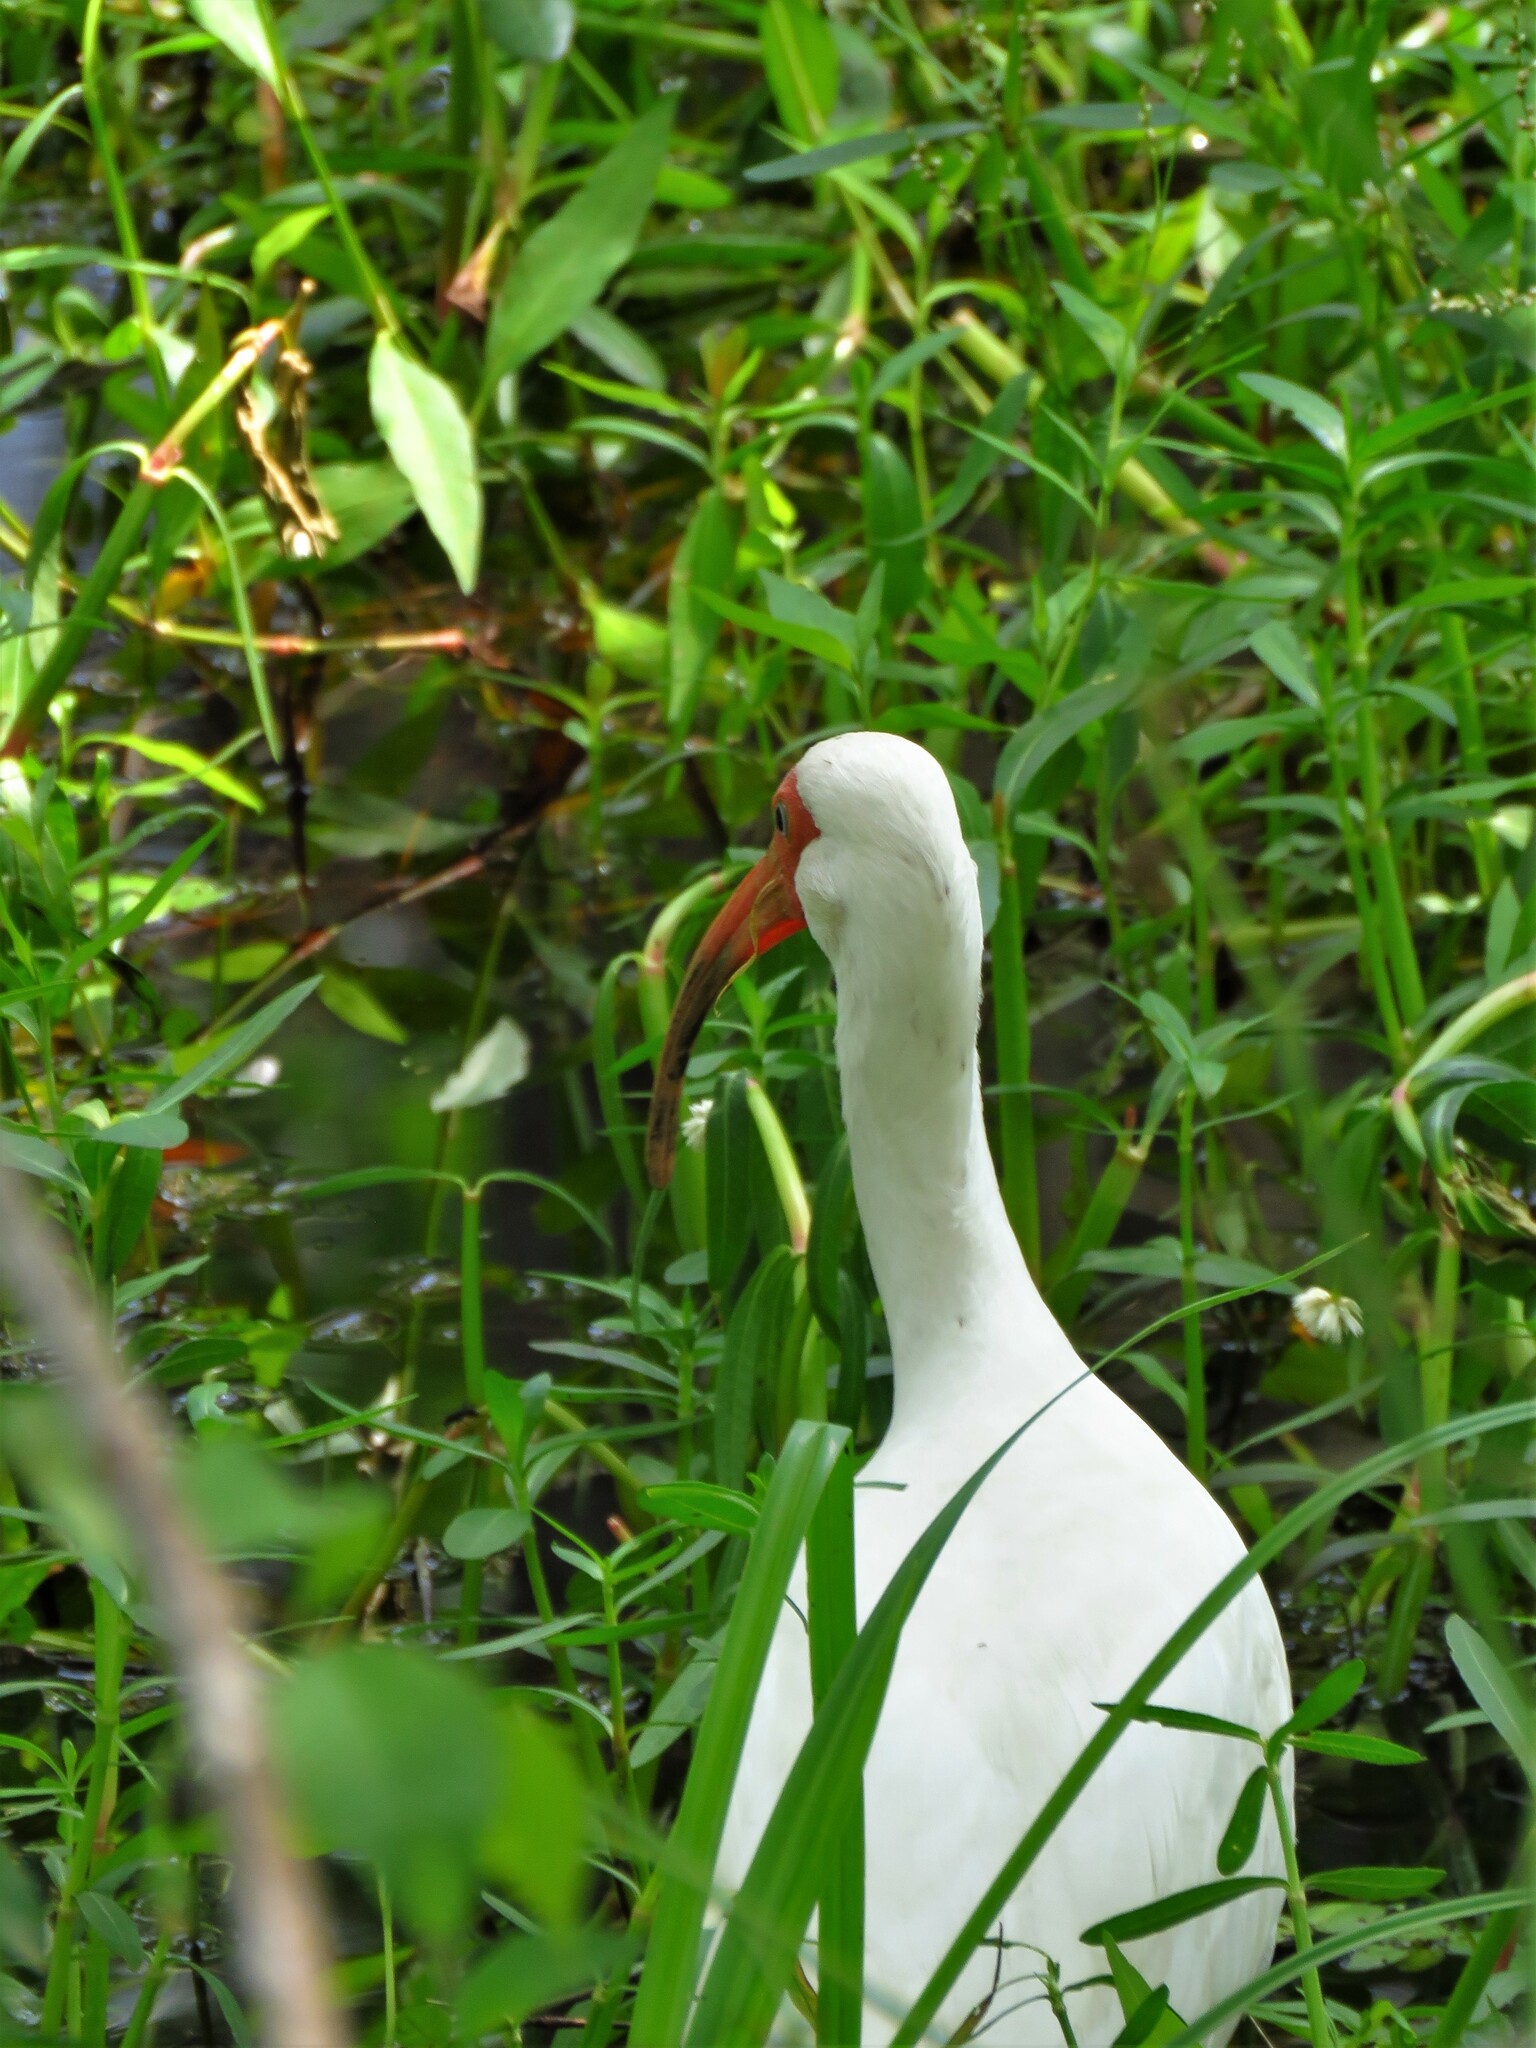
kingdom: Animalia
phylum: Chordata
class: Aves
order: Pelecaniformes
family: Threskiornithidae
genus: Eudocimus
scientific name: Eudocimus albus
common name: White ibis
